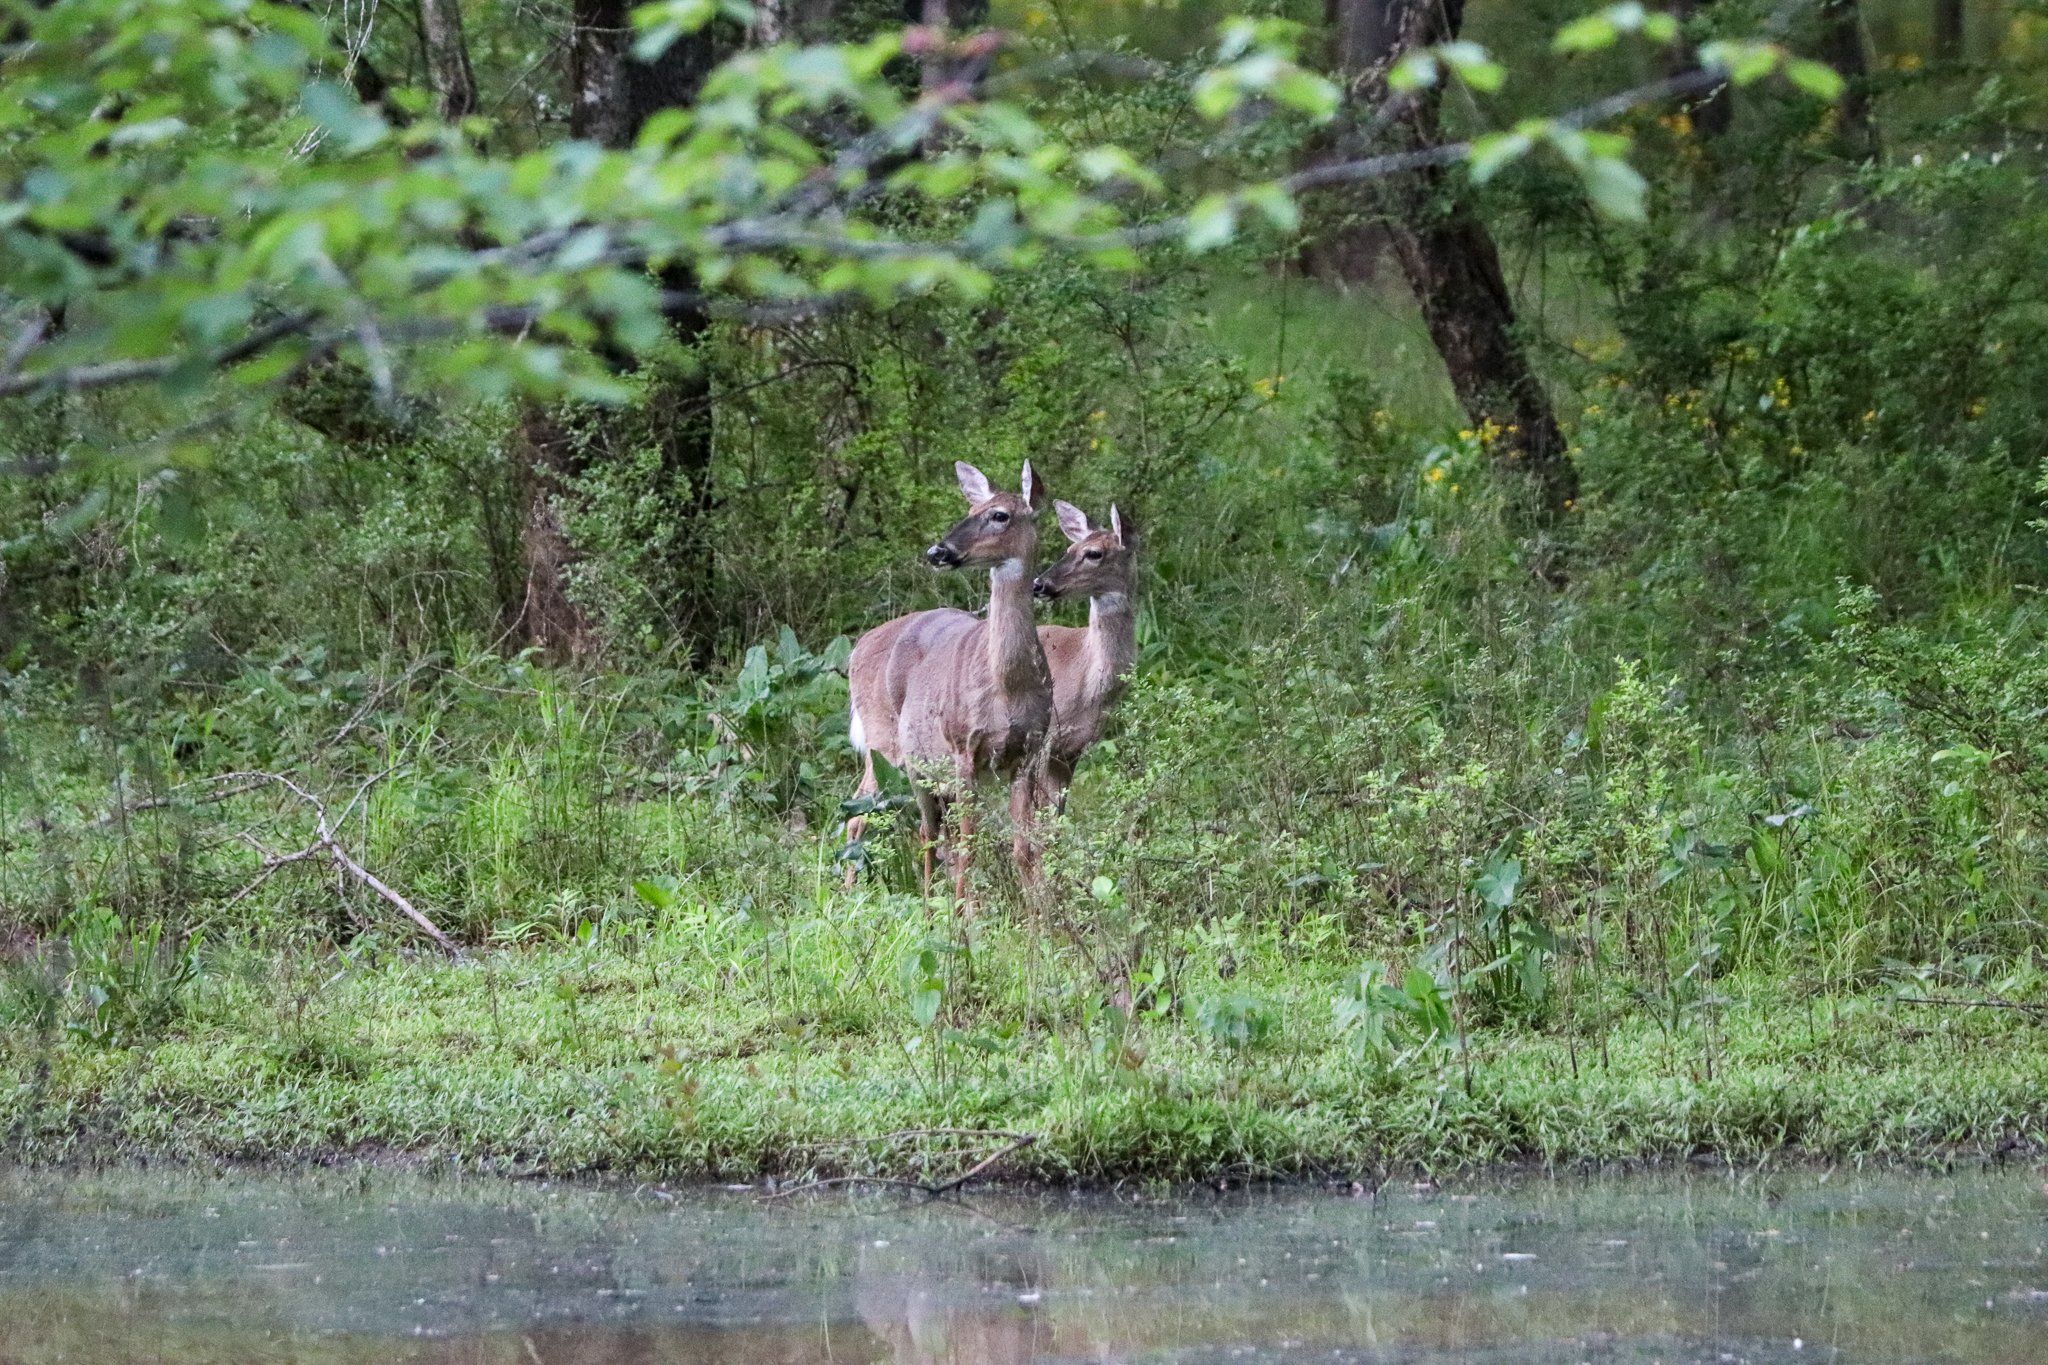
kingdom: Animalia
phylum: Chordata
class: Mammalia
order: Artiodactyla
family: Cervidae
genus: Odocoileus
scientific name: Odocoileus virginianus
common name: White-tailed deer
